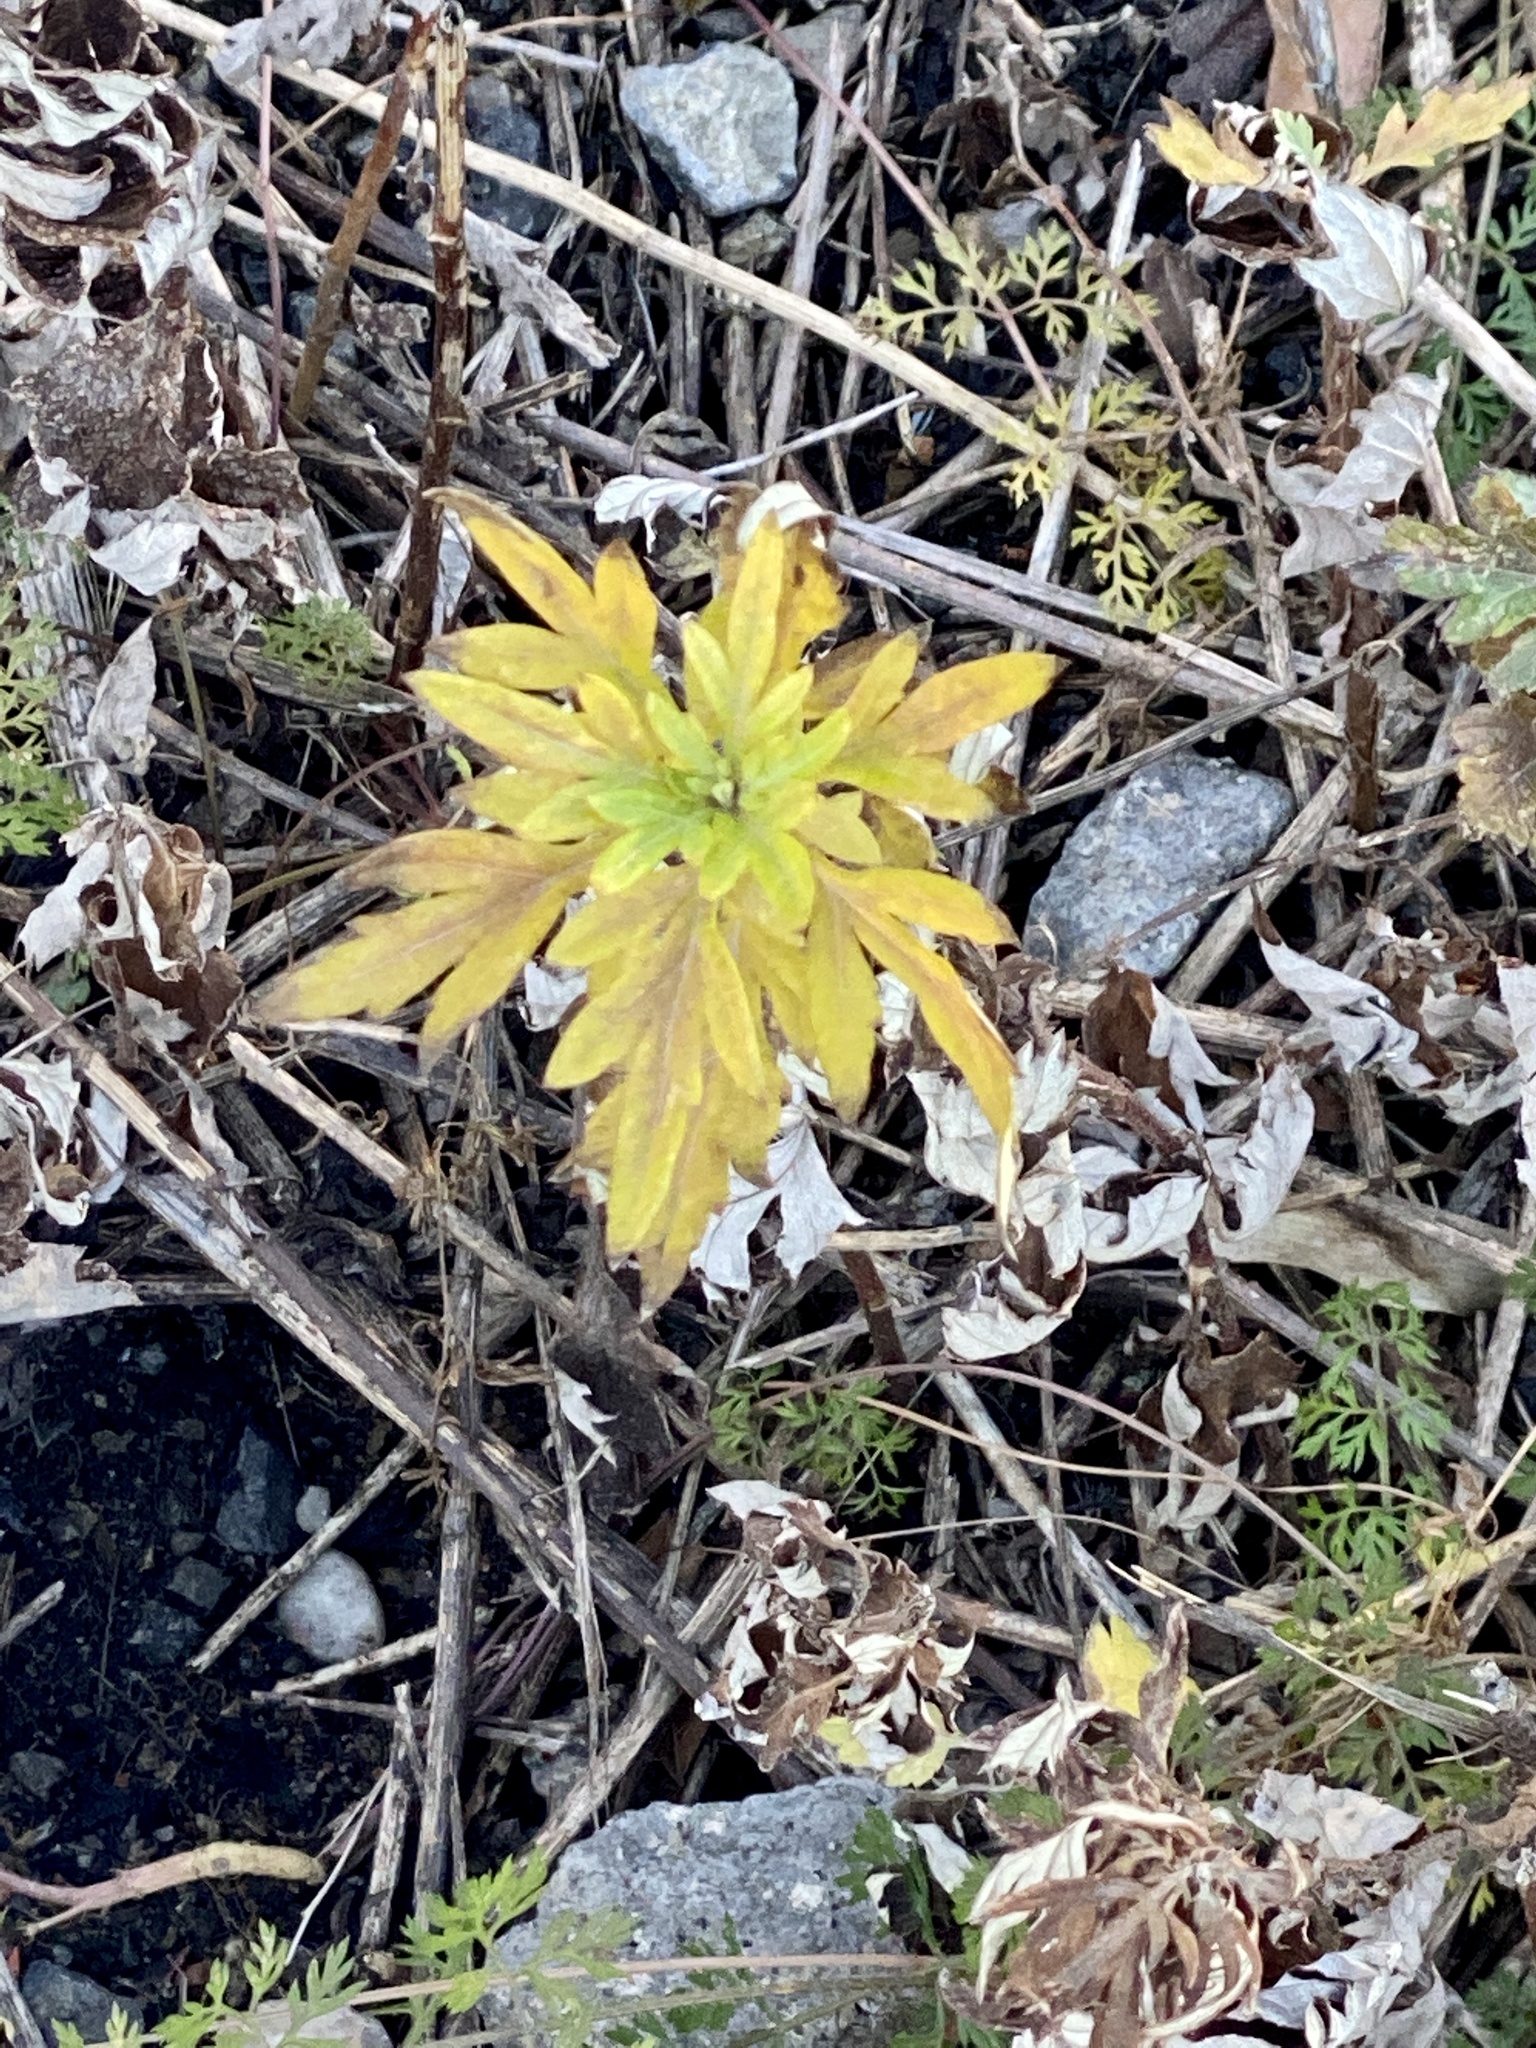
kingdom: Plantae
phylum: Tracheophyta
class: Magnoliopsida
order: Asterales
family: Asteraceae
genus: Artemisia
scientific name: Artemisia vulgaris
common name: Mugwort
